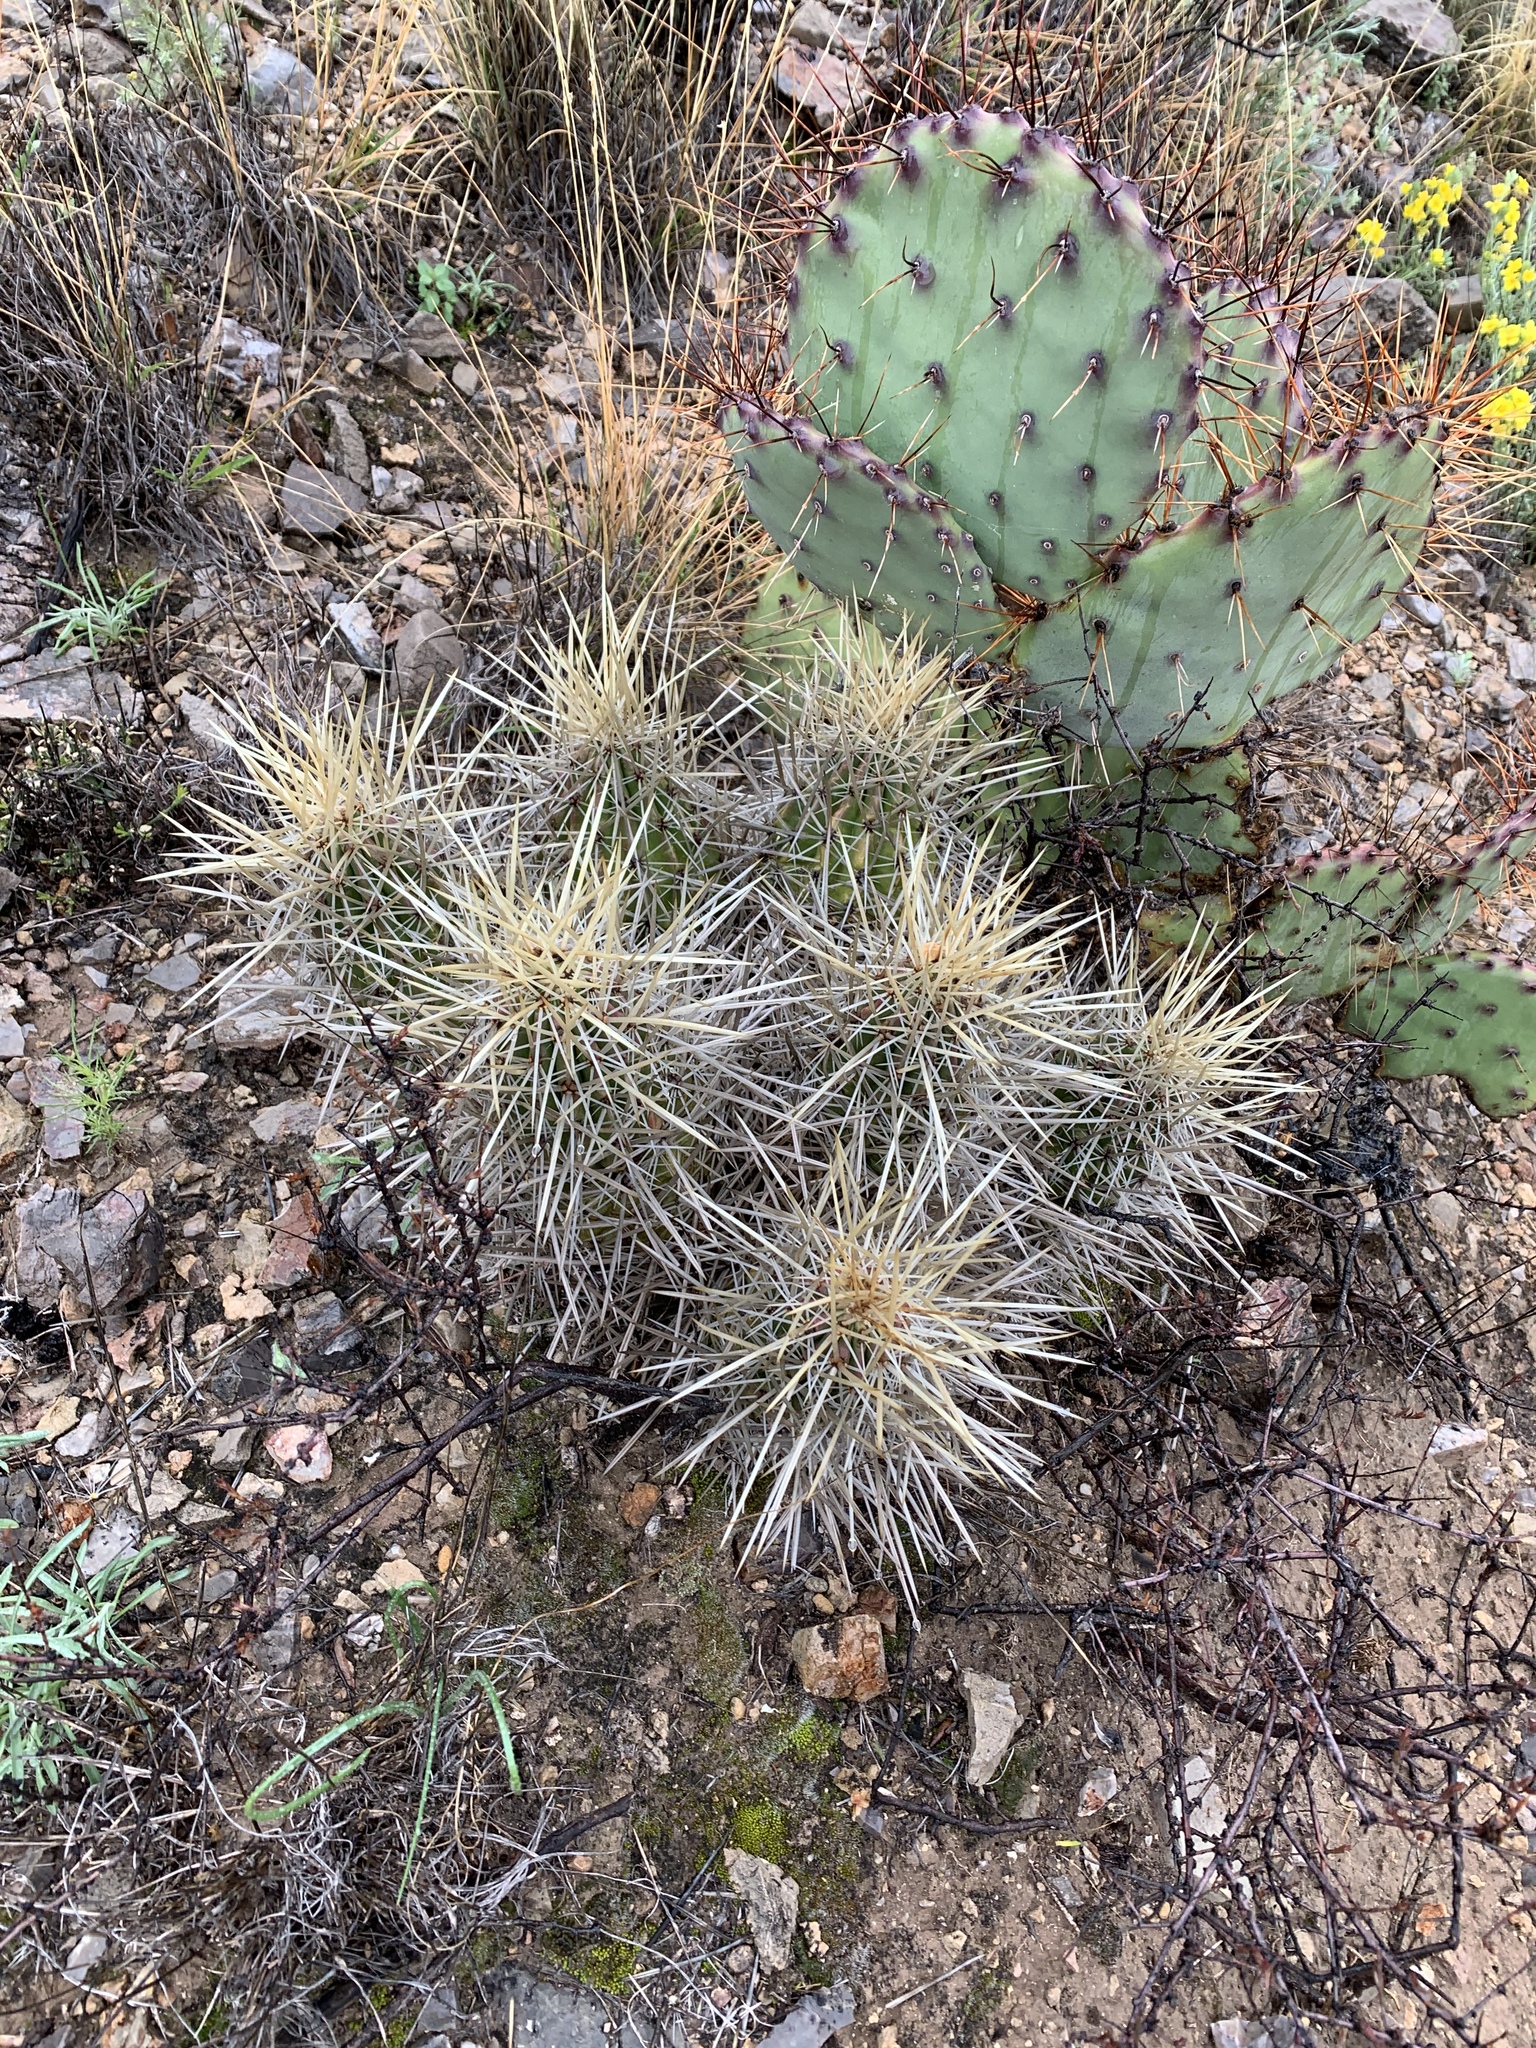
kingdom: Plantae
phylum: Tracheophyta
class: Magnoliopsida
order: Caryophyllales
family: Cactaceae
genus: Echinocereus
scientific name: Echinocereus stramineus
